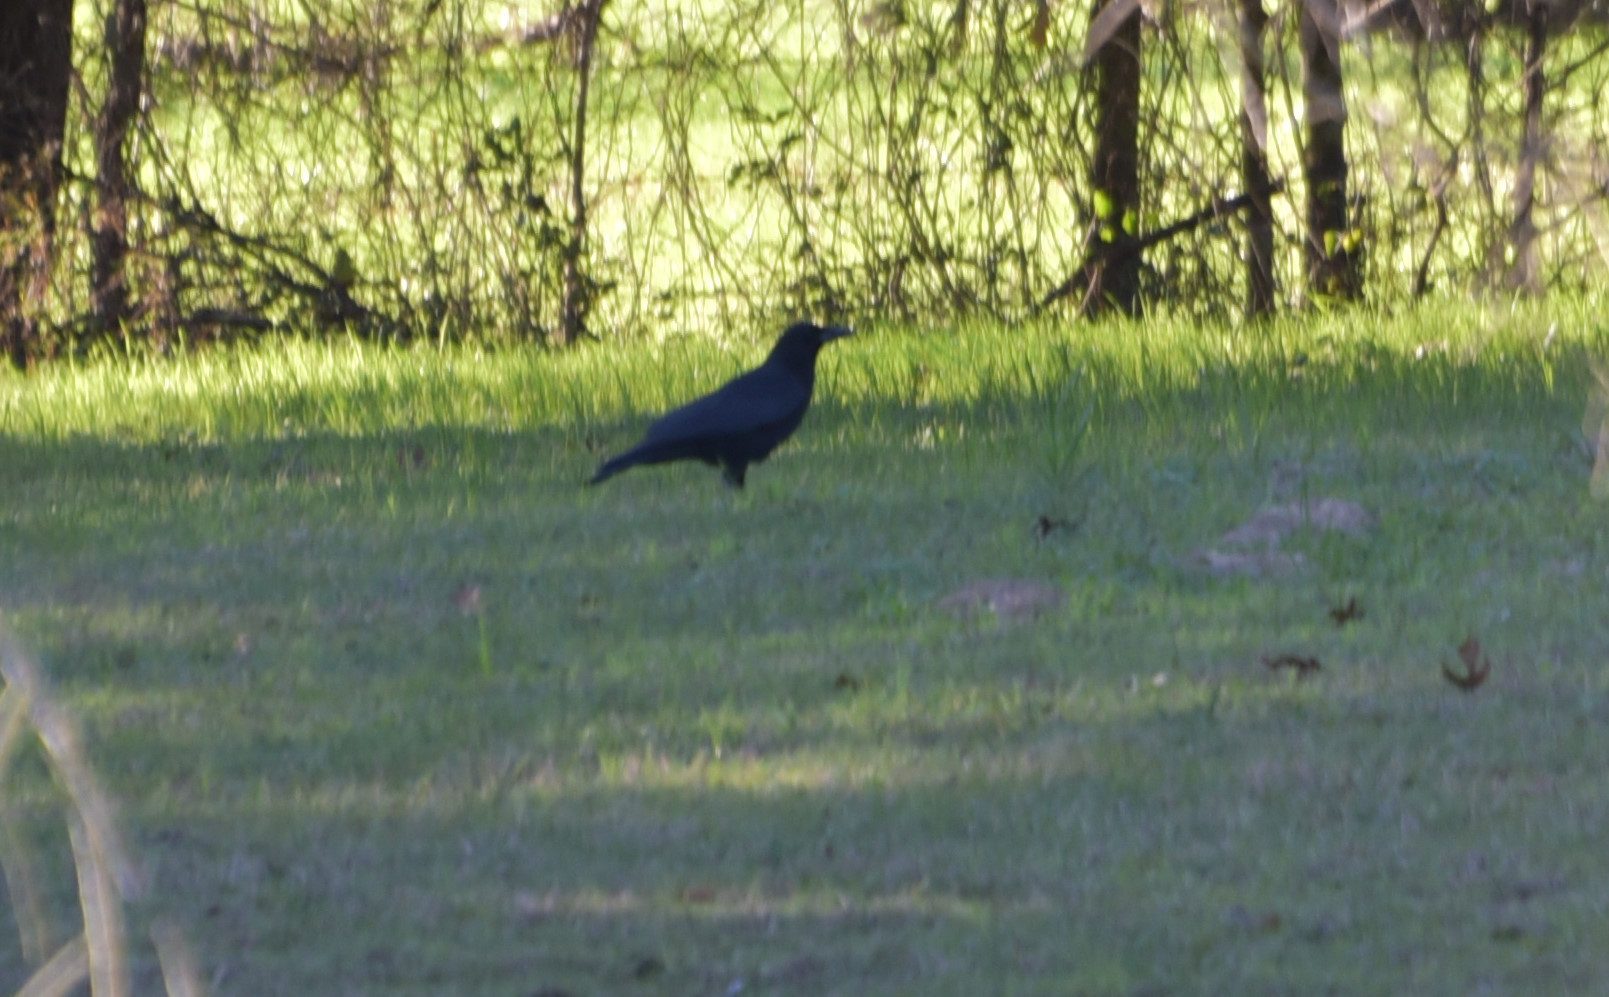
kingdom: Animalia
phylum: Chordata
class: Aves
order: Passeriformes
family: Corvidae
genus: Corvus
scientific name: Corvus brachyrhynchos
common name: American crow
